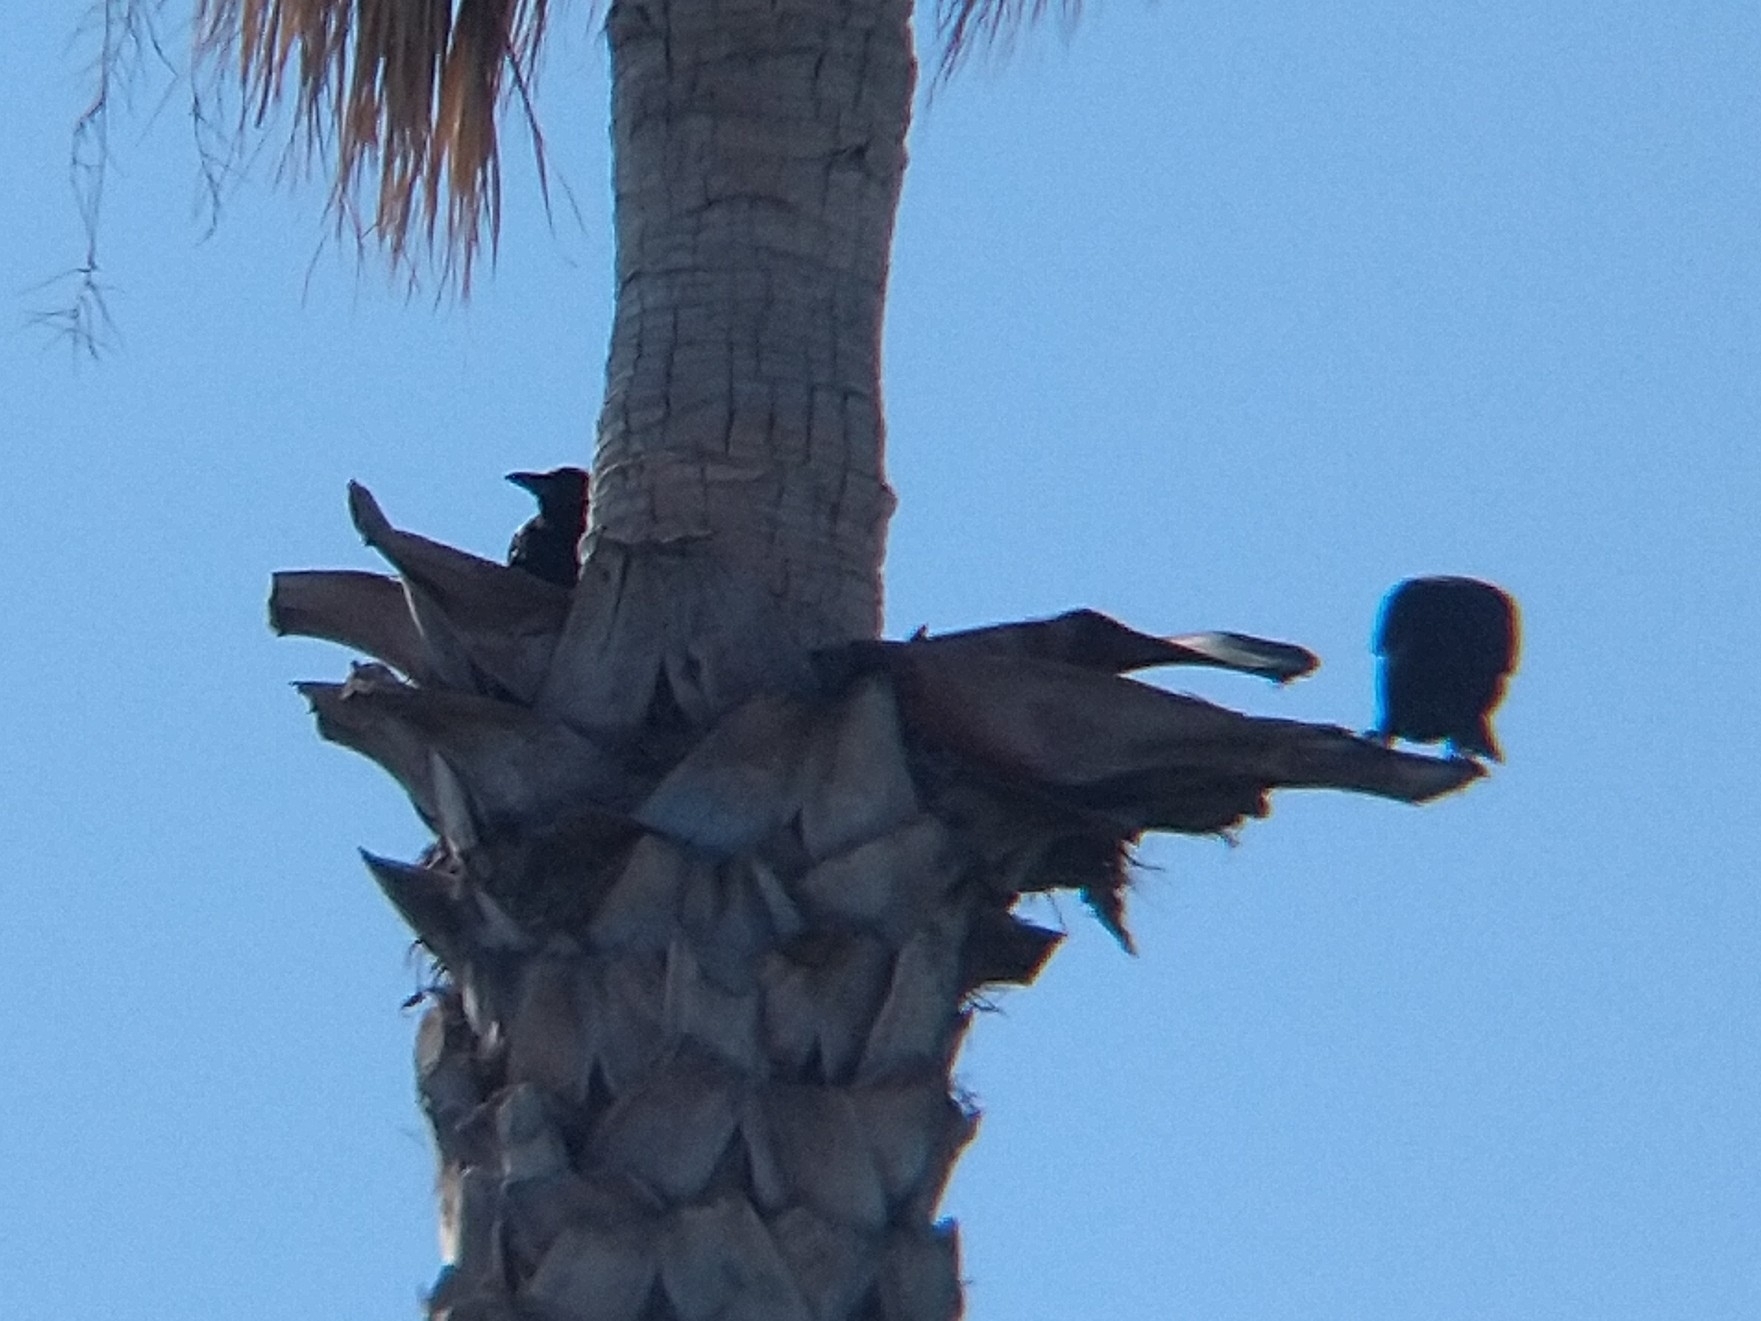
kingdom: Animalia
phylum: Chordata
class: Aves
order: Passeriformes
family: Corvidae
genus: Corvus
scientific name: Corvus brachyrhynchos
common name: American crow
